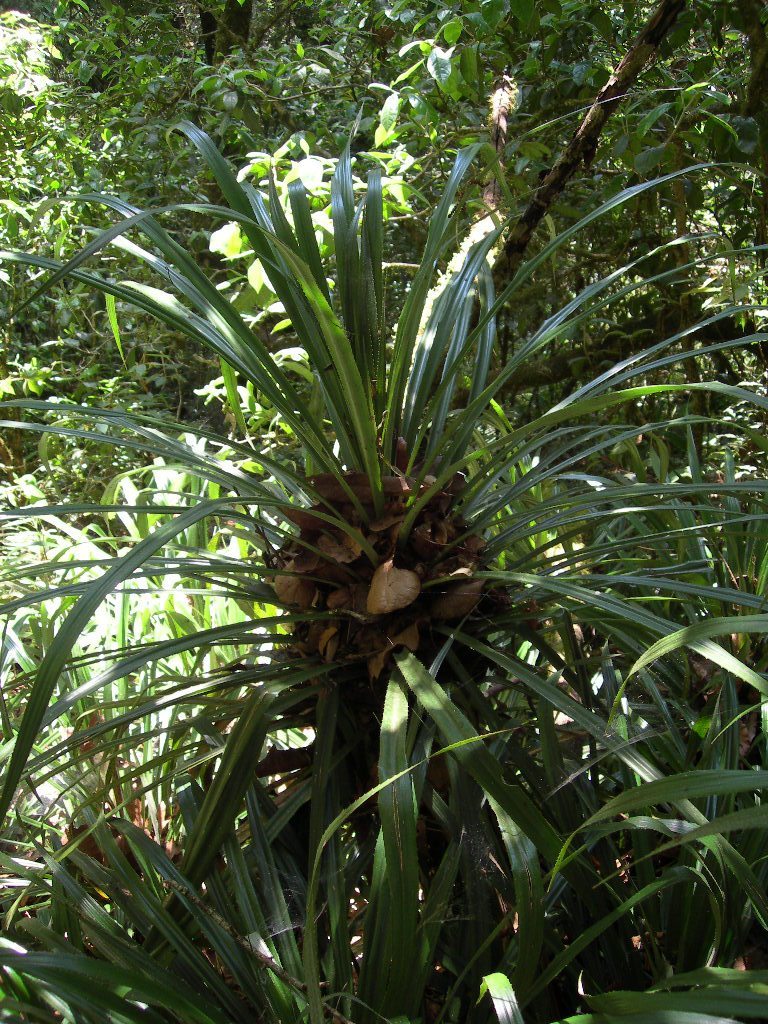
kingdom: Plantae
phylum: Tracheophyta
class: Liliopsida
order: Poales
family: Bromeliaceae
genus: Greigia
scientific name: Greigia vanhyningii
